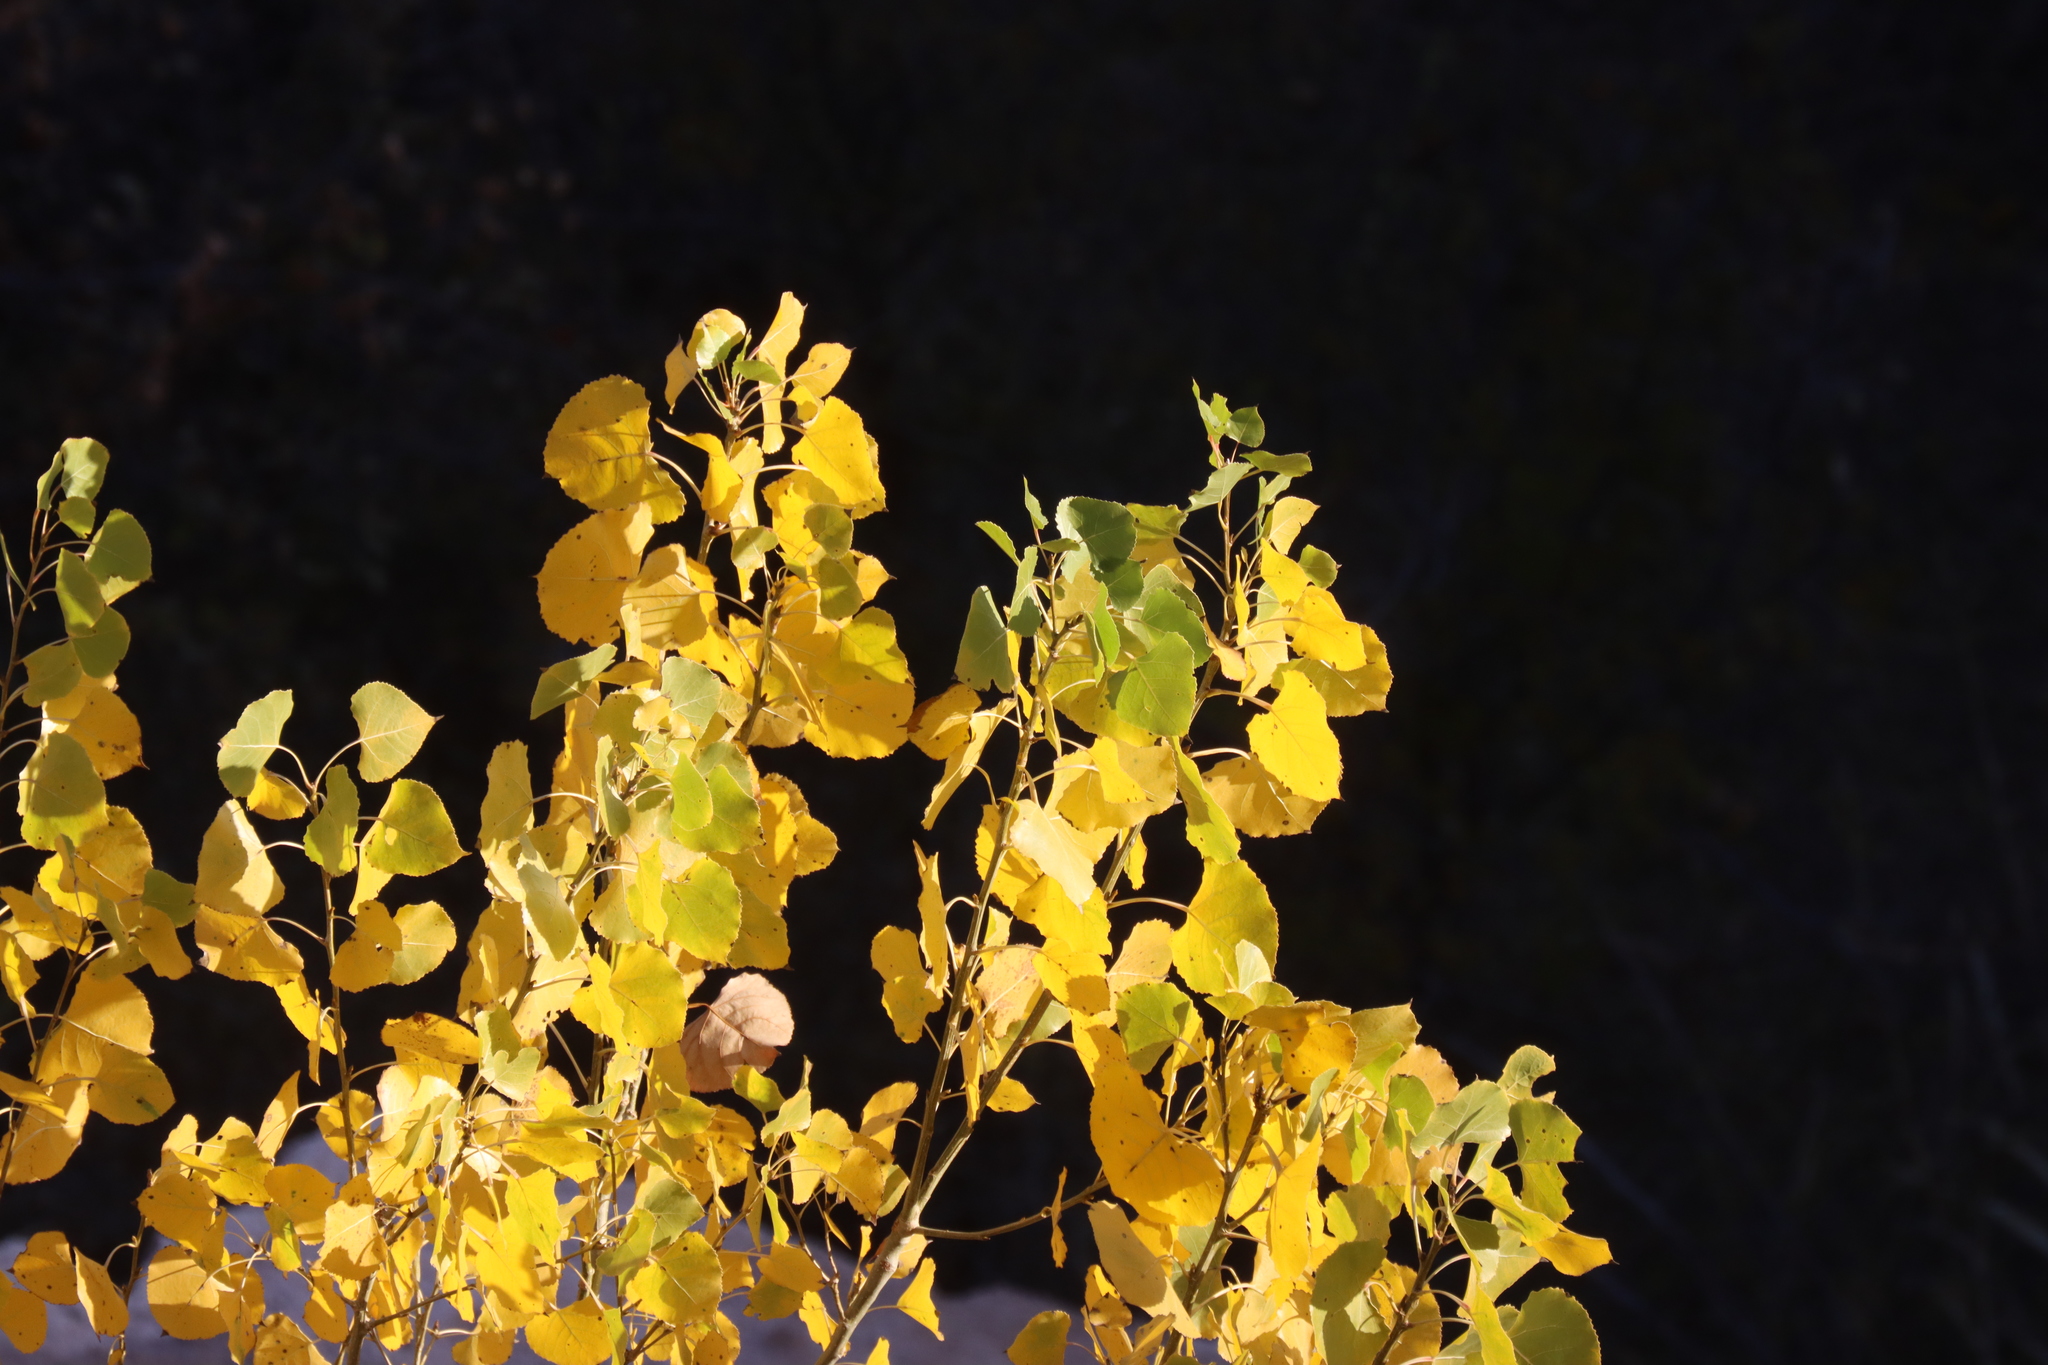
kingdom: Plantae
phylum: Tracheophyta
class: Magnoliopsida
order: Malpighiales
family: Salicaceae
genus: Populus
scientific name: Populus deltoides
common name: Eastern cottonwood
